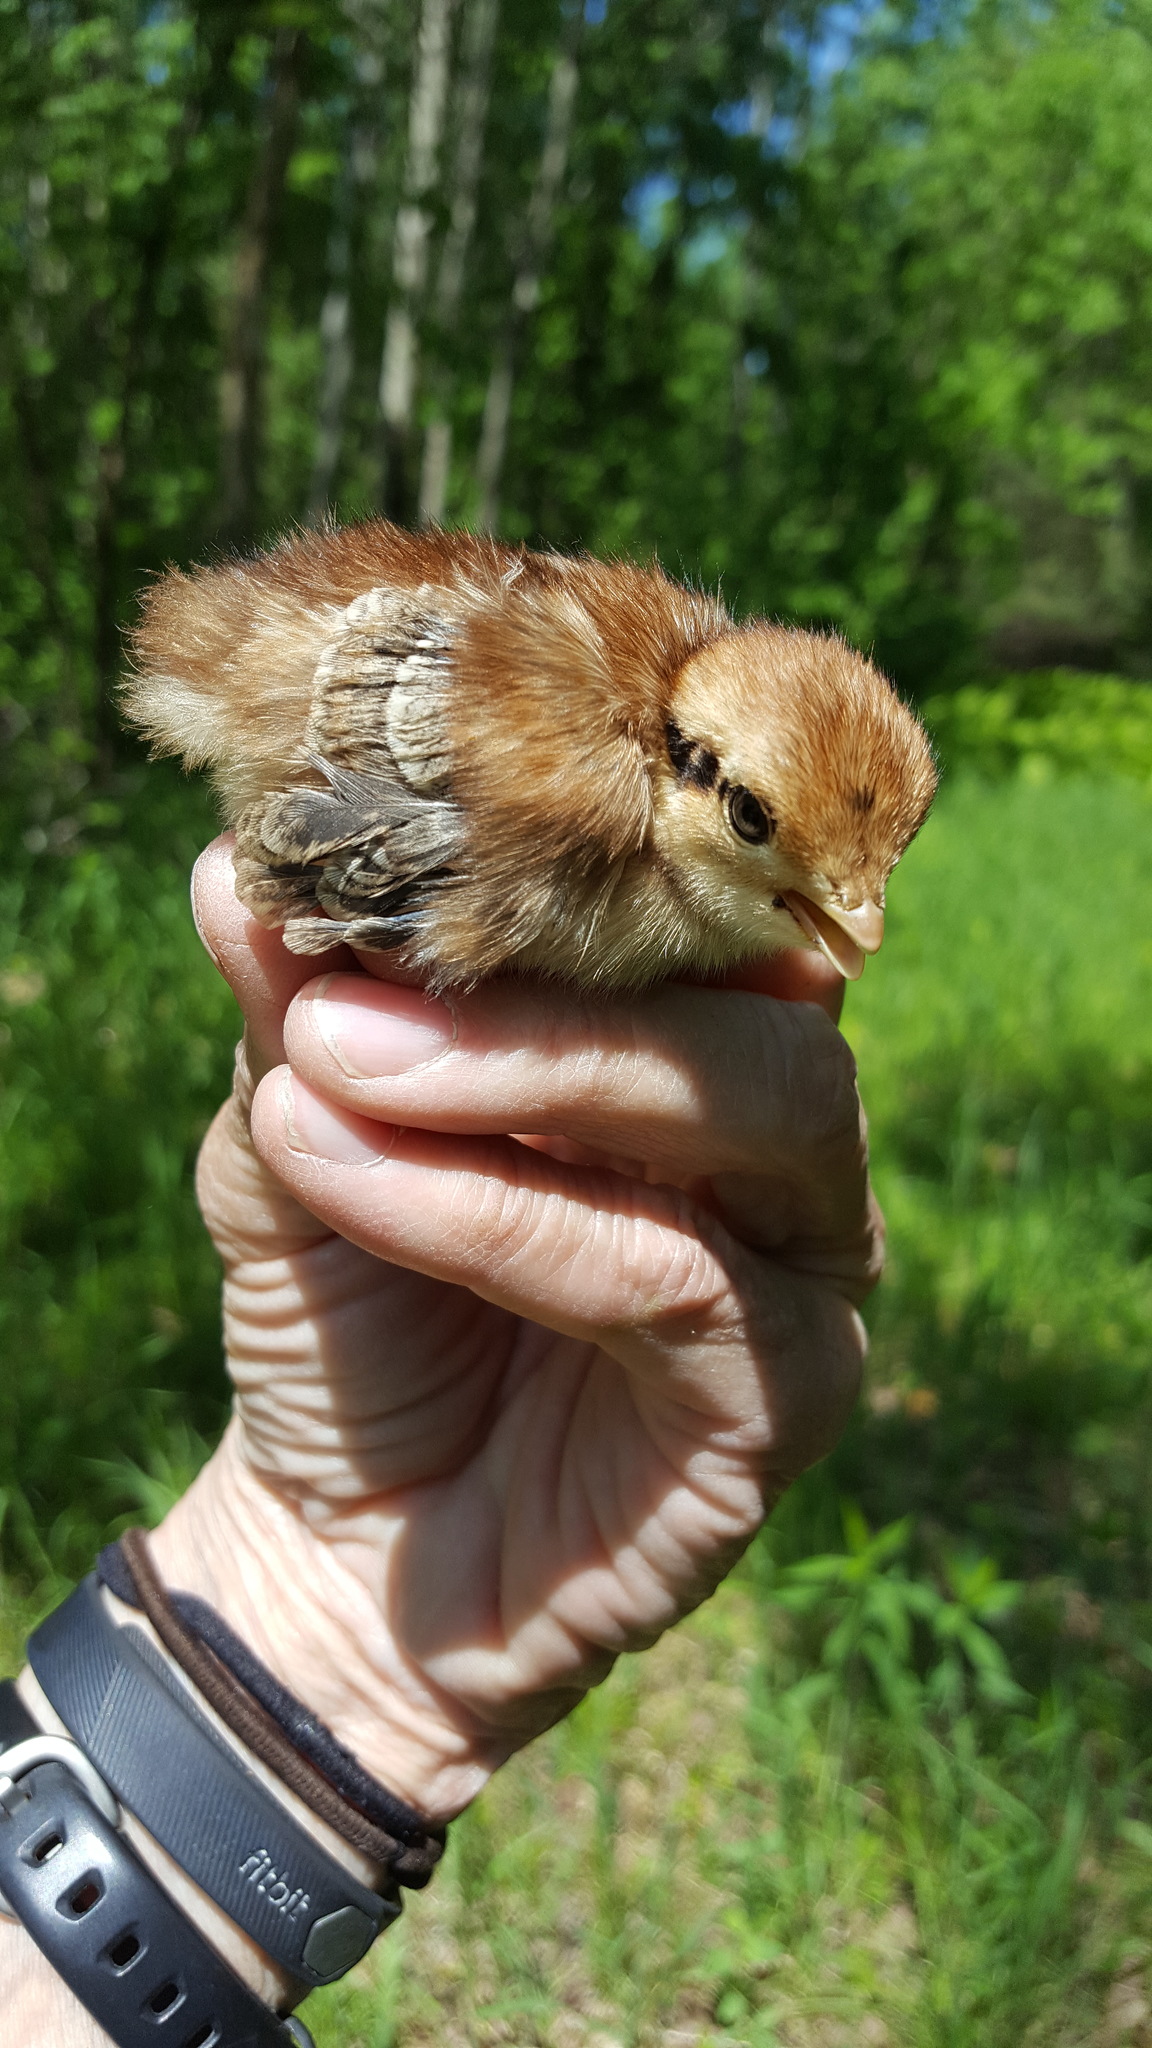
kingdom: Animalia
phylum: Chordata
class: Aves
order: Galliformes
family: Phasianidae
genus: Bonasa
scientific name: Bonasa umbellus
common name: Ruffed grouse
